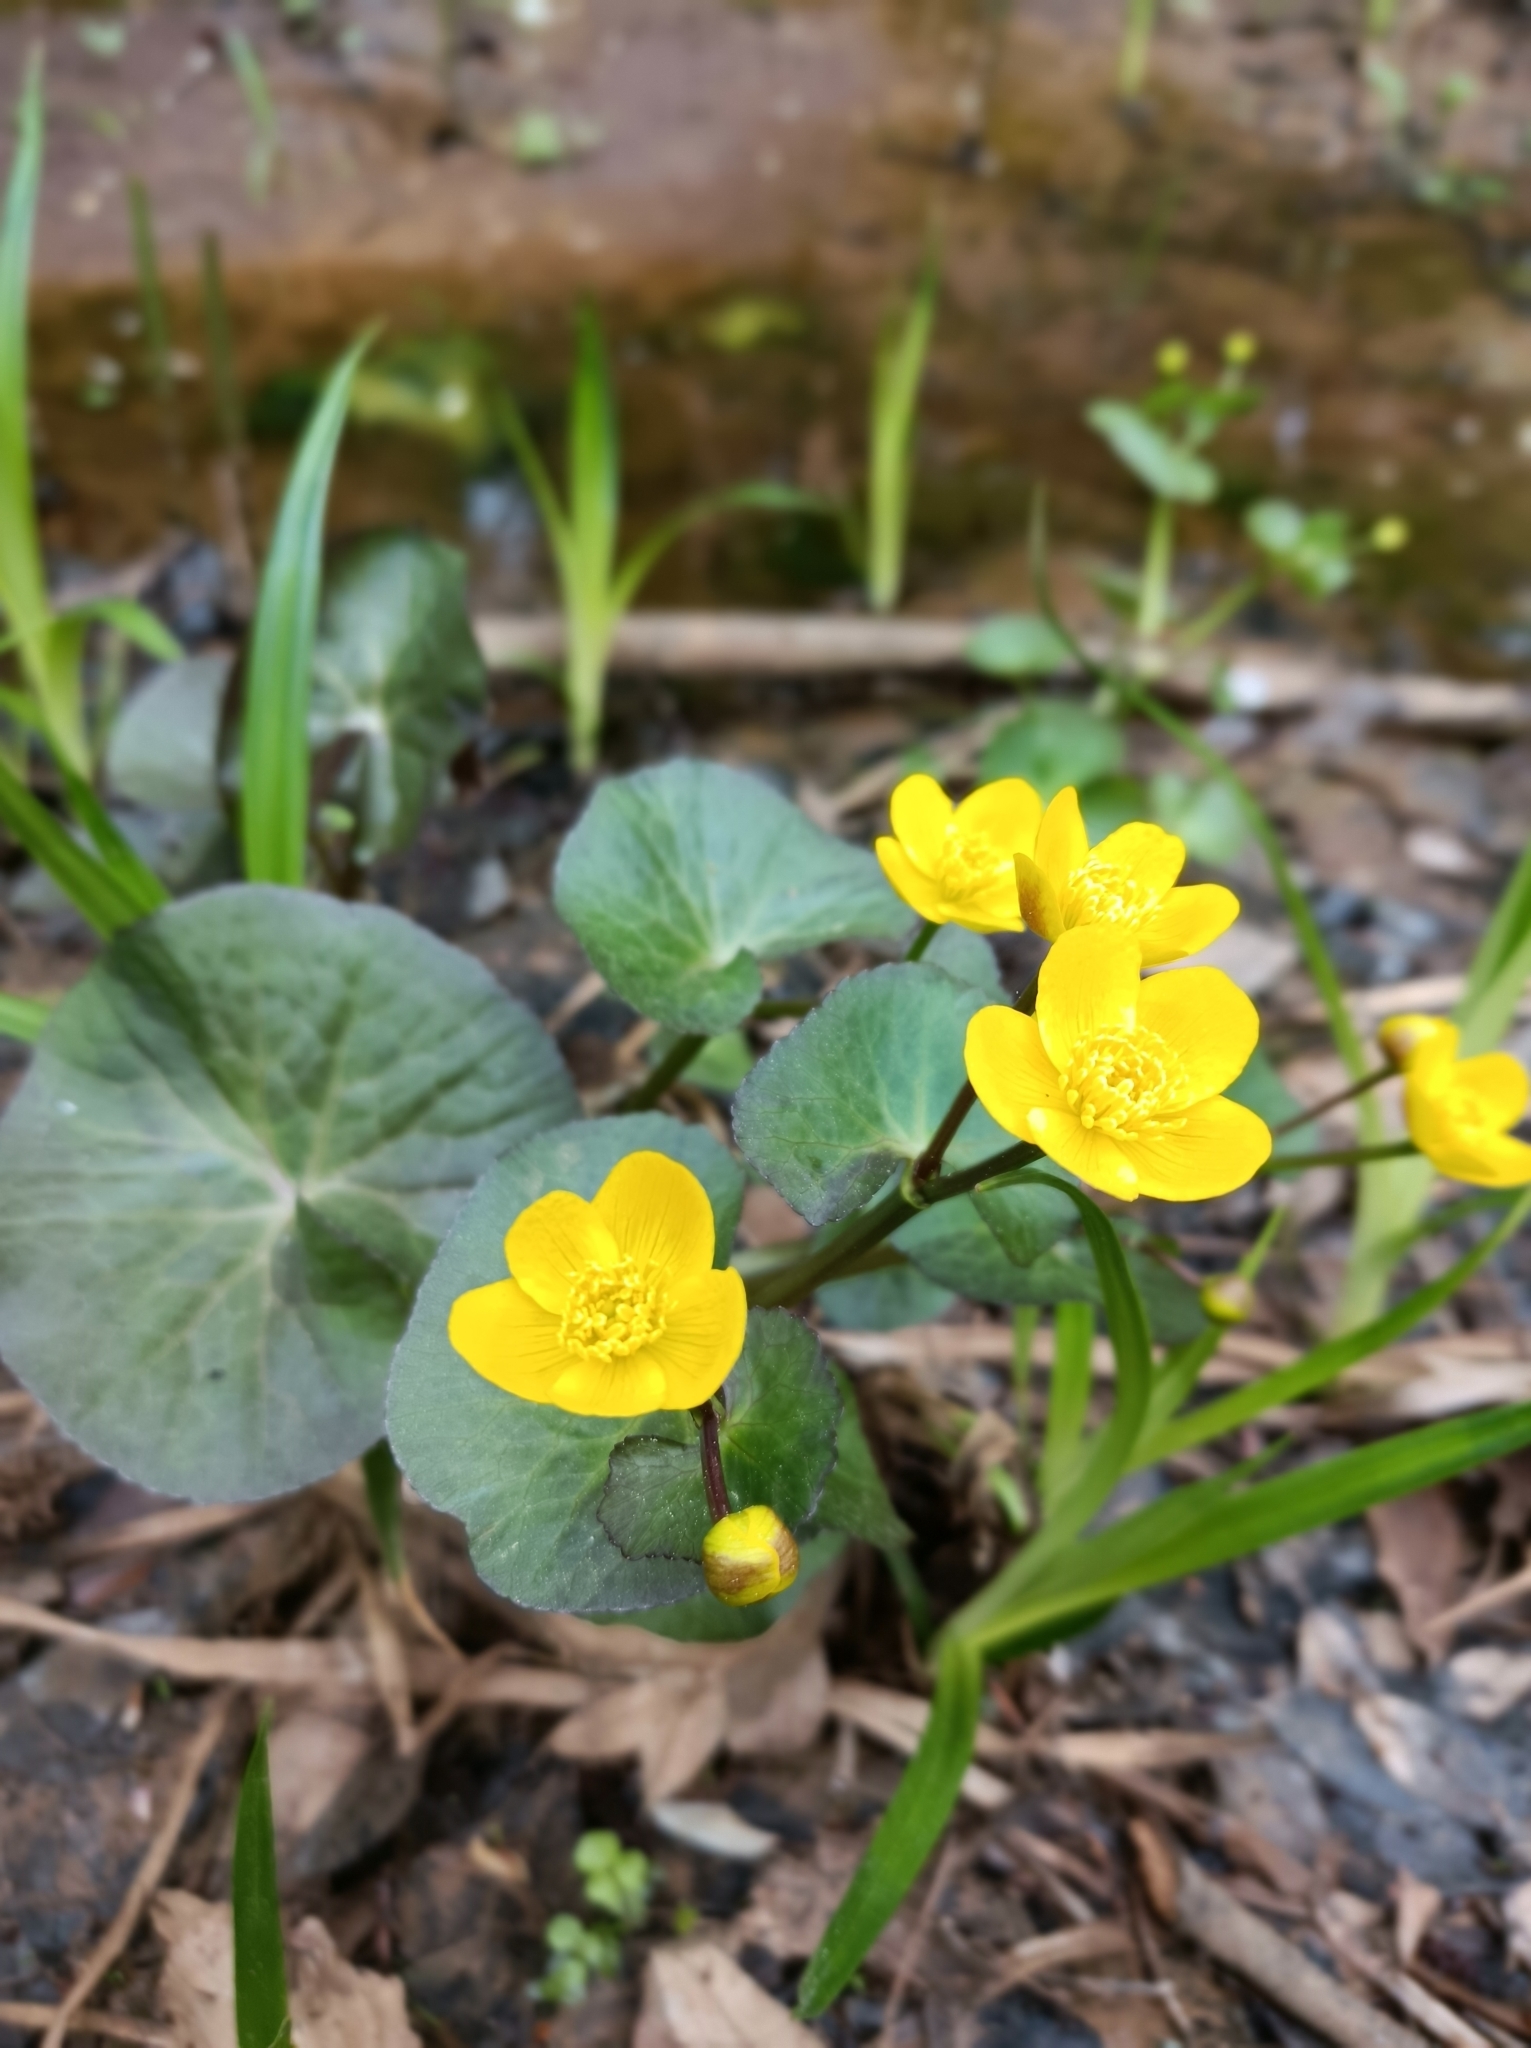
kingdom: Plantae
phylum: Tracheophyta
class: Magnoliopsida
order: Ranunculales
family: Ranunculaceae
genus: Caltha
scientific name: Caltha palustris
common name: Marsh marigold
